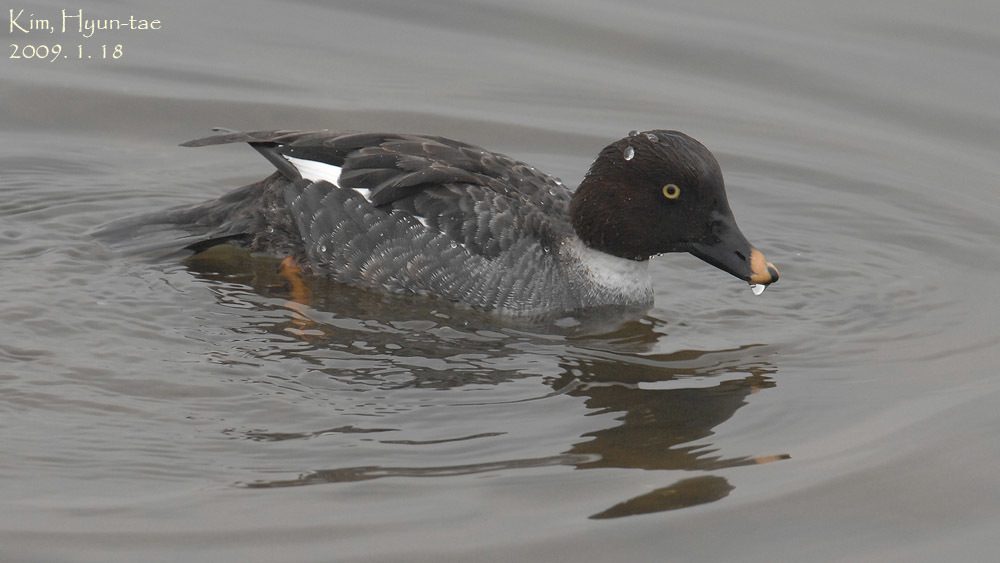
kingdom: Animalia
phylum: Chordata
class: Aves
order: Anseriformes
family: Anatidae
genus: Bucephala
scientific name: Bucephala clangula
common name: Common goldeneye
